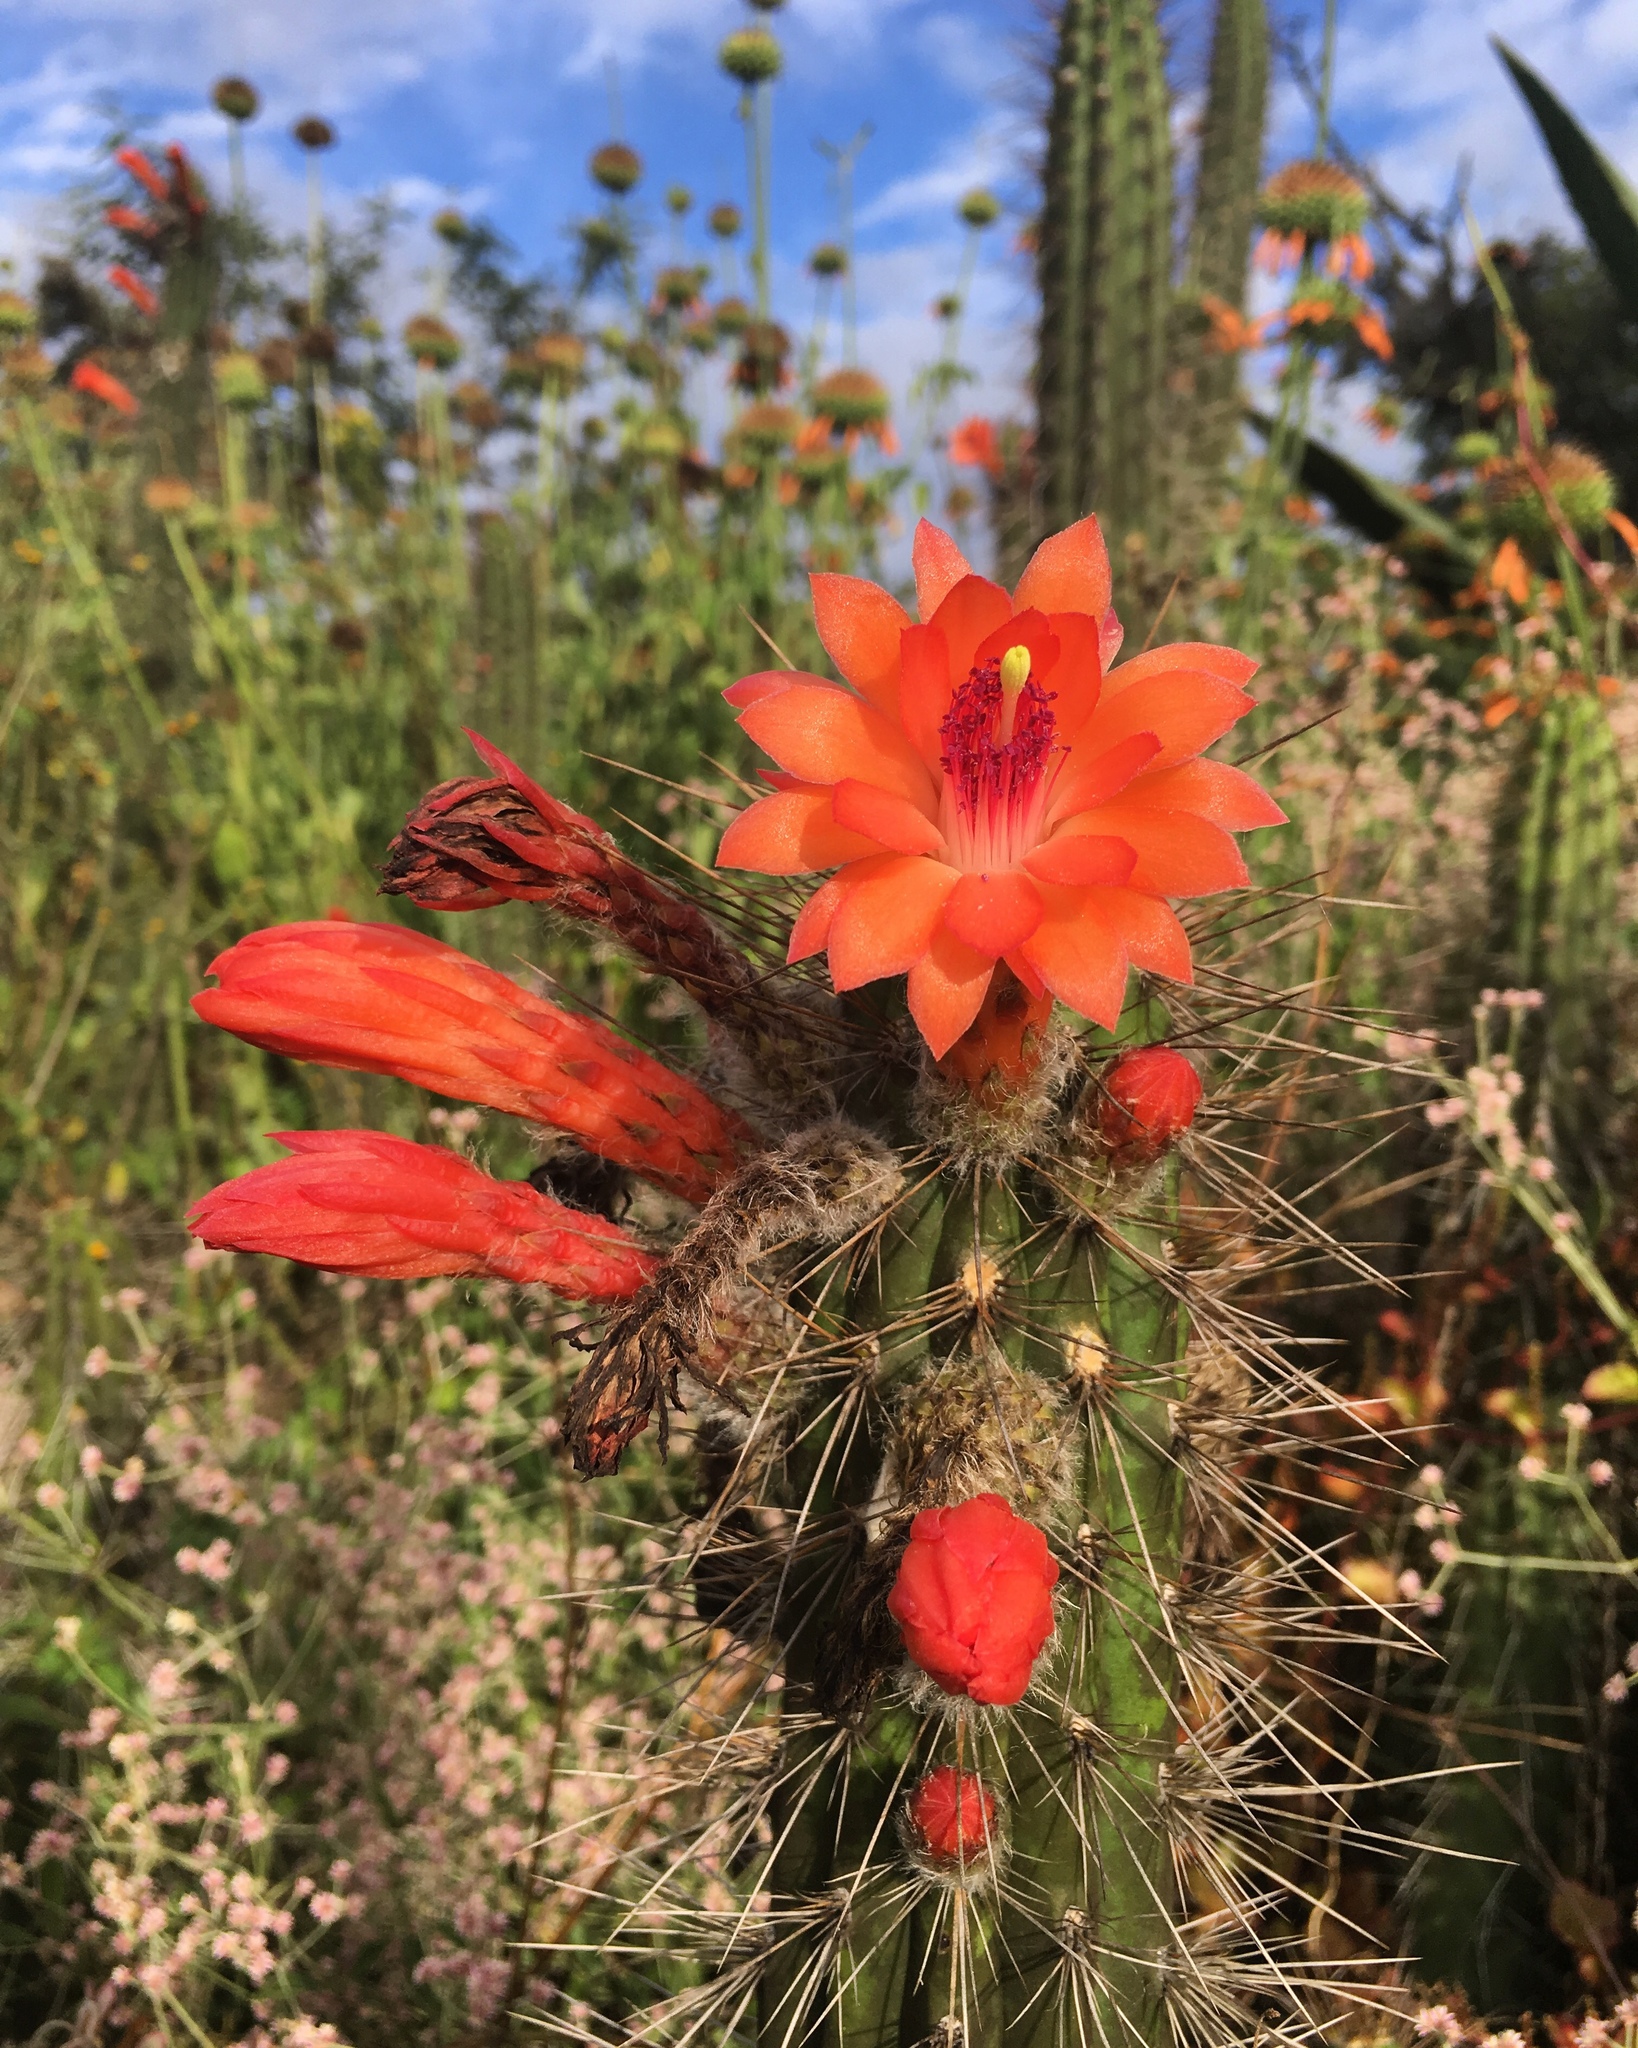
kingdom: Plantae
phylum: Tracheophyta
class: Magnoliopsida
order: Caryophyllales
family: Cactaceae
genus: Borzicactus
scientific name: Borzicactus sepium
